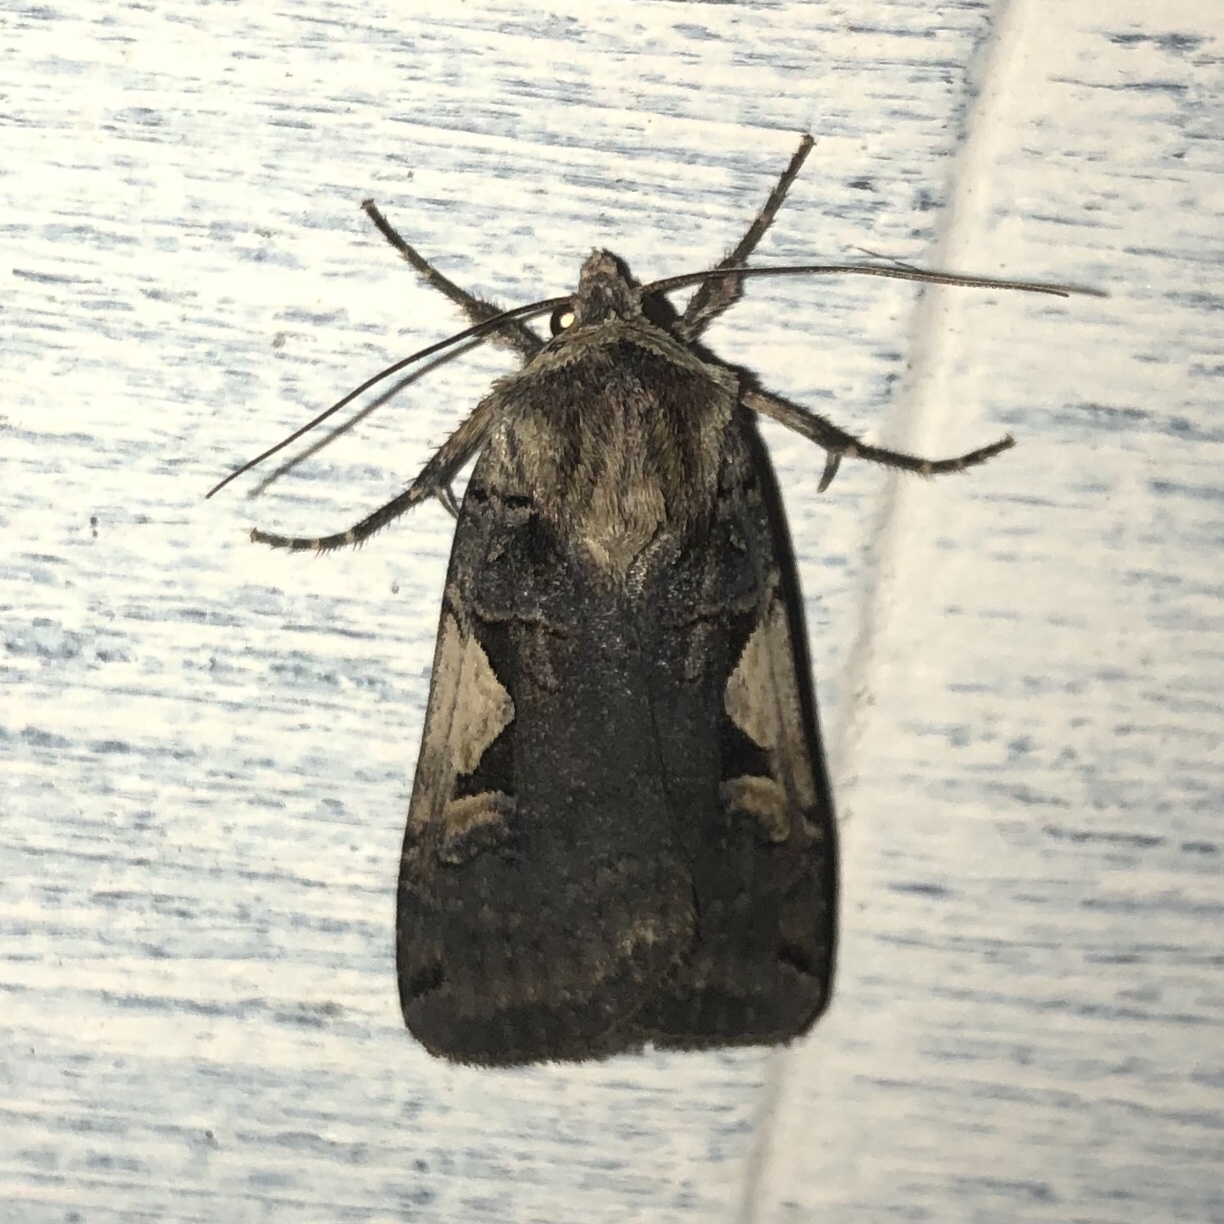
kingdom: Animalia
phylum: Arthropoda
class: Insecta
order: Lepidoptera
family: Noctuidae
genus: Xestia
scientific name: Xestia dolosa
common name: Cutworm moth
